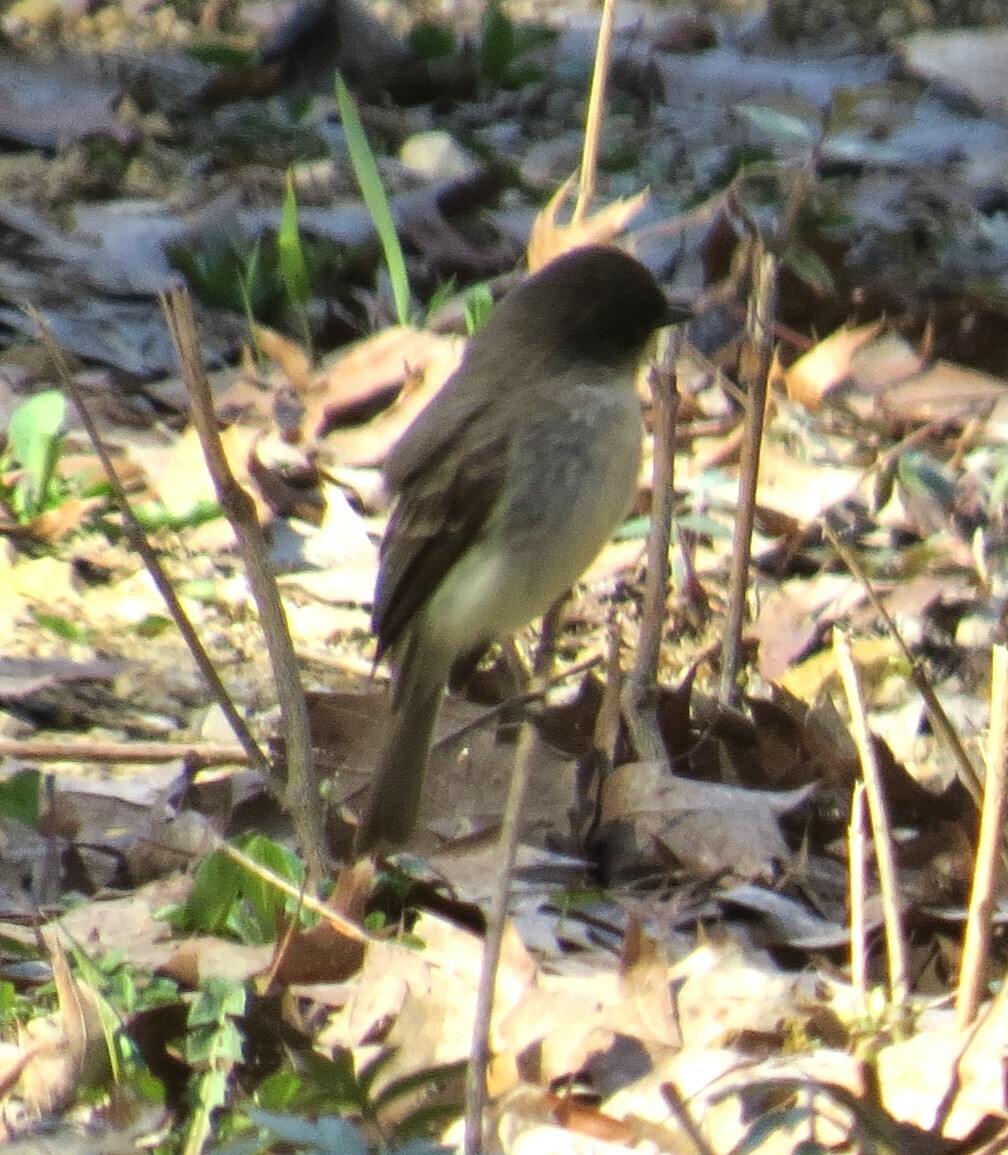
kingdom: Animalia
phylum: Chordata
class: Aves
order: Passeriformes
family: Tyrannidae
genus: Sayornis
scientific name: Sayornis phoebe
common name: Eastern phoebe
